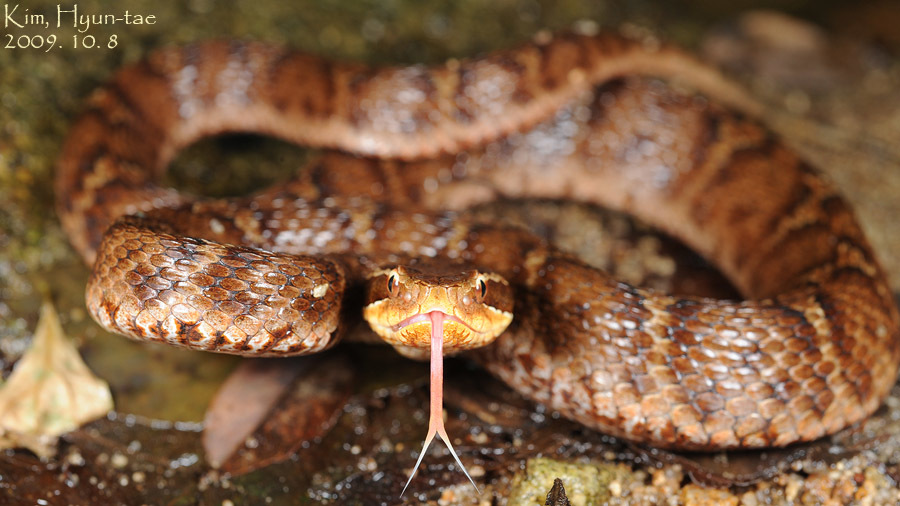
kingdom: Animalia
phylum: Chordata
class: Squamata
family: Viperidae
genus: Gloydius
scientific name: Gloydius ussuriensis
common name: Ussuri mamushi
